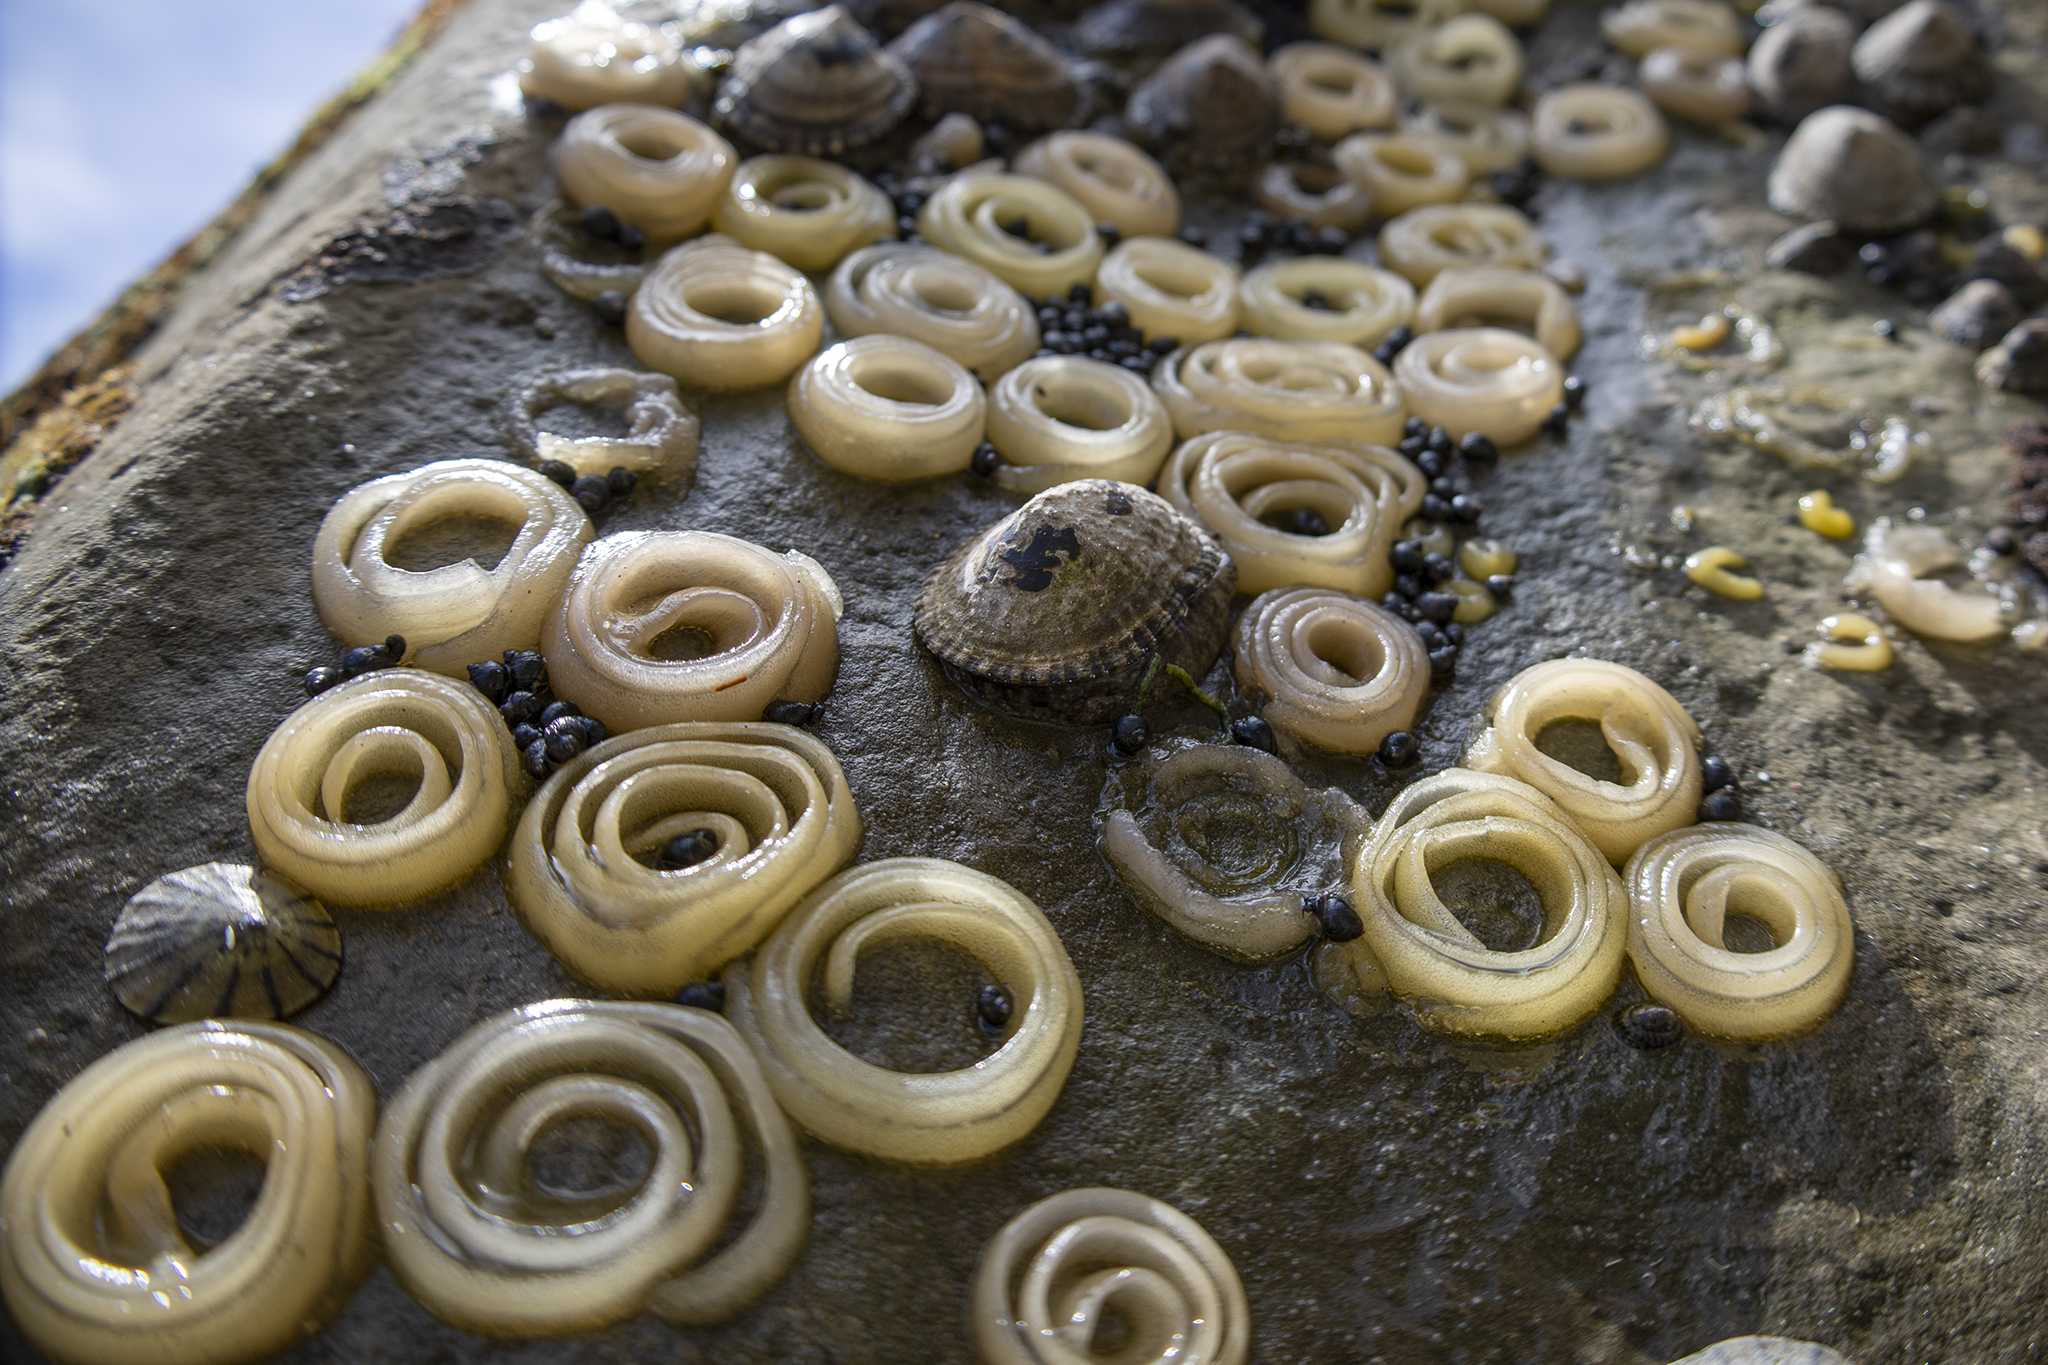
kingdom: Animalia
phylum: Mollusca
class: Gastropoda
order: Siphonariida
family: Siphonariidae
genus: Benhamina
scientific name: Benhamina obliquata
